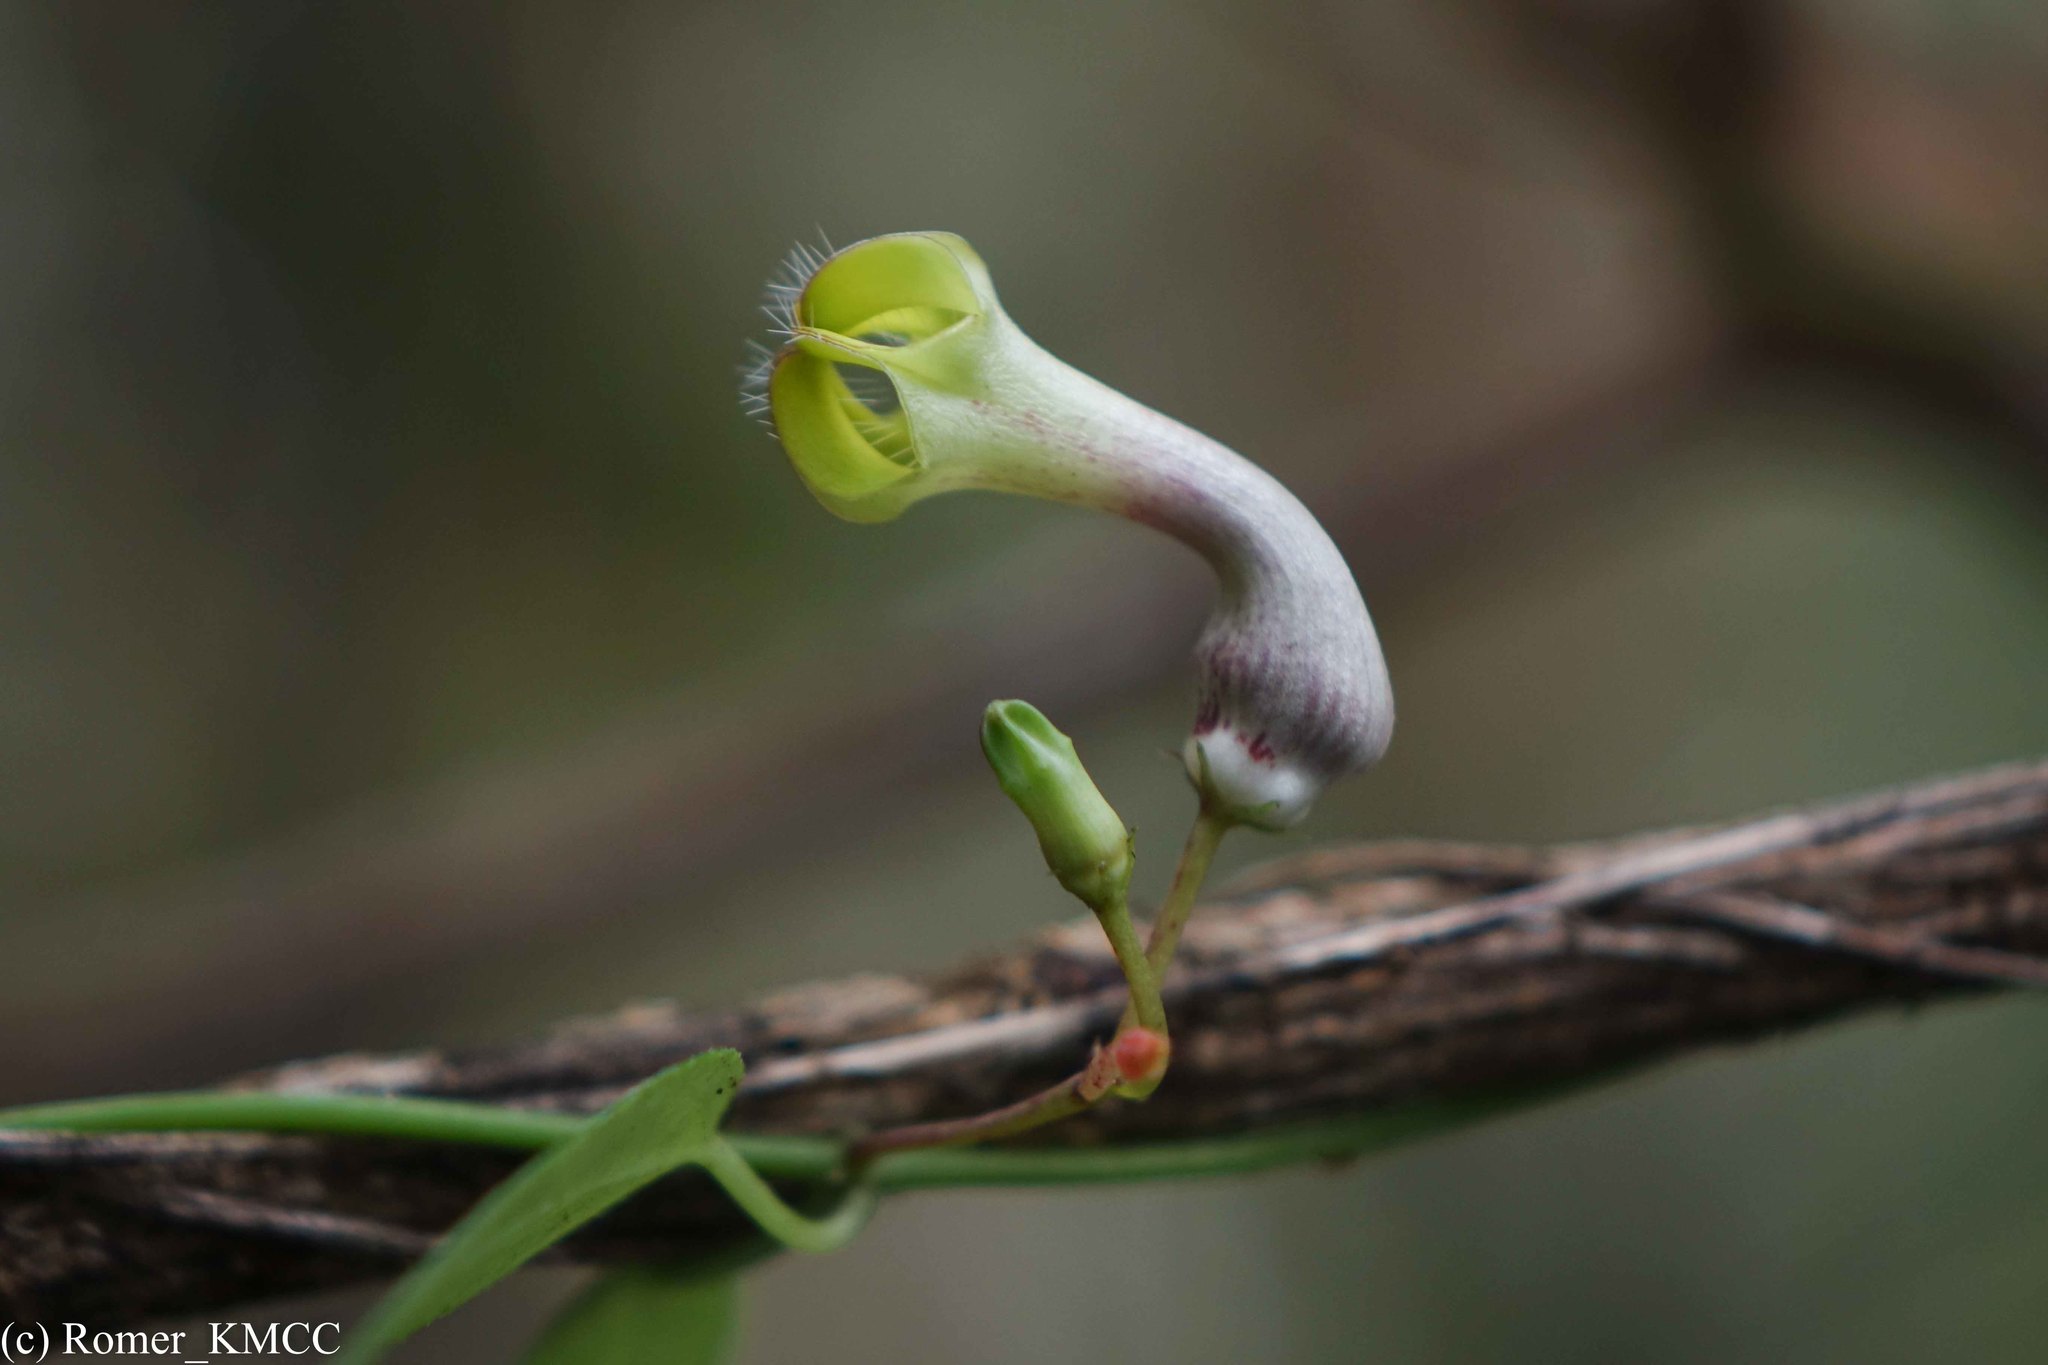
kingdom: Plantae
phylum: Tracheophyta
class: Magnoliopsida
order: Gentianales
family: Apocynaceae
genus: Ceropegia
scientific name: Ceropegia racemosa
